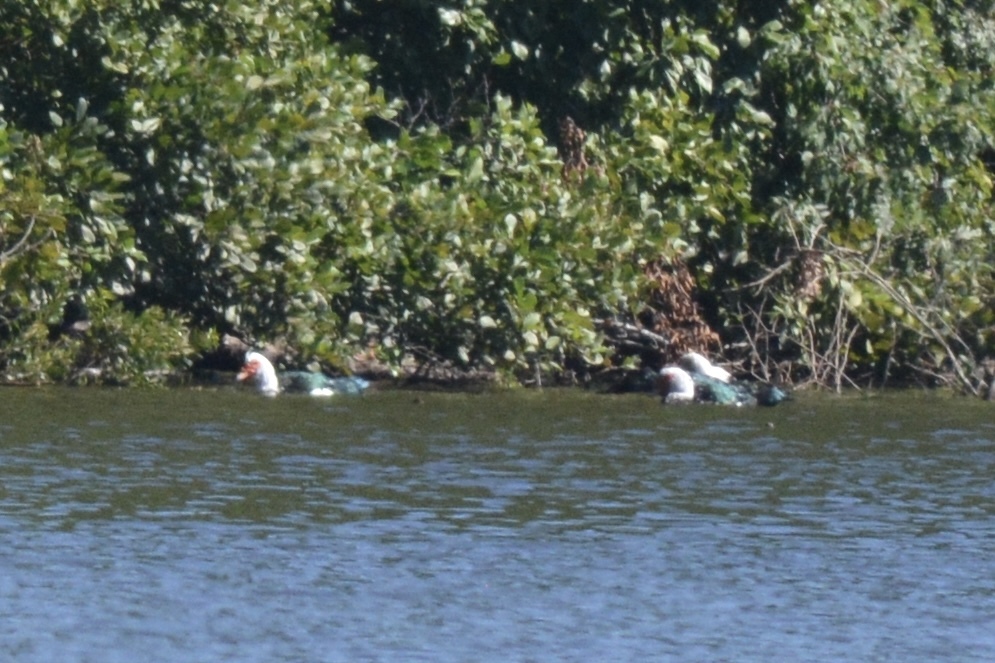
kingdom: Animalia
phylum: Chordata
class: Aves
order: Anseriformes
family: Anatidae
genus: Cairina
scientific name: Cairina moschata
